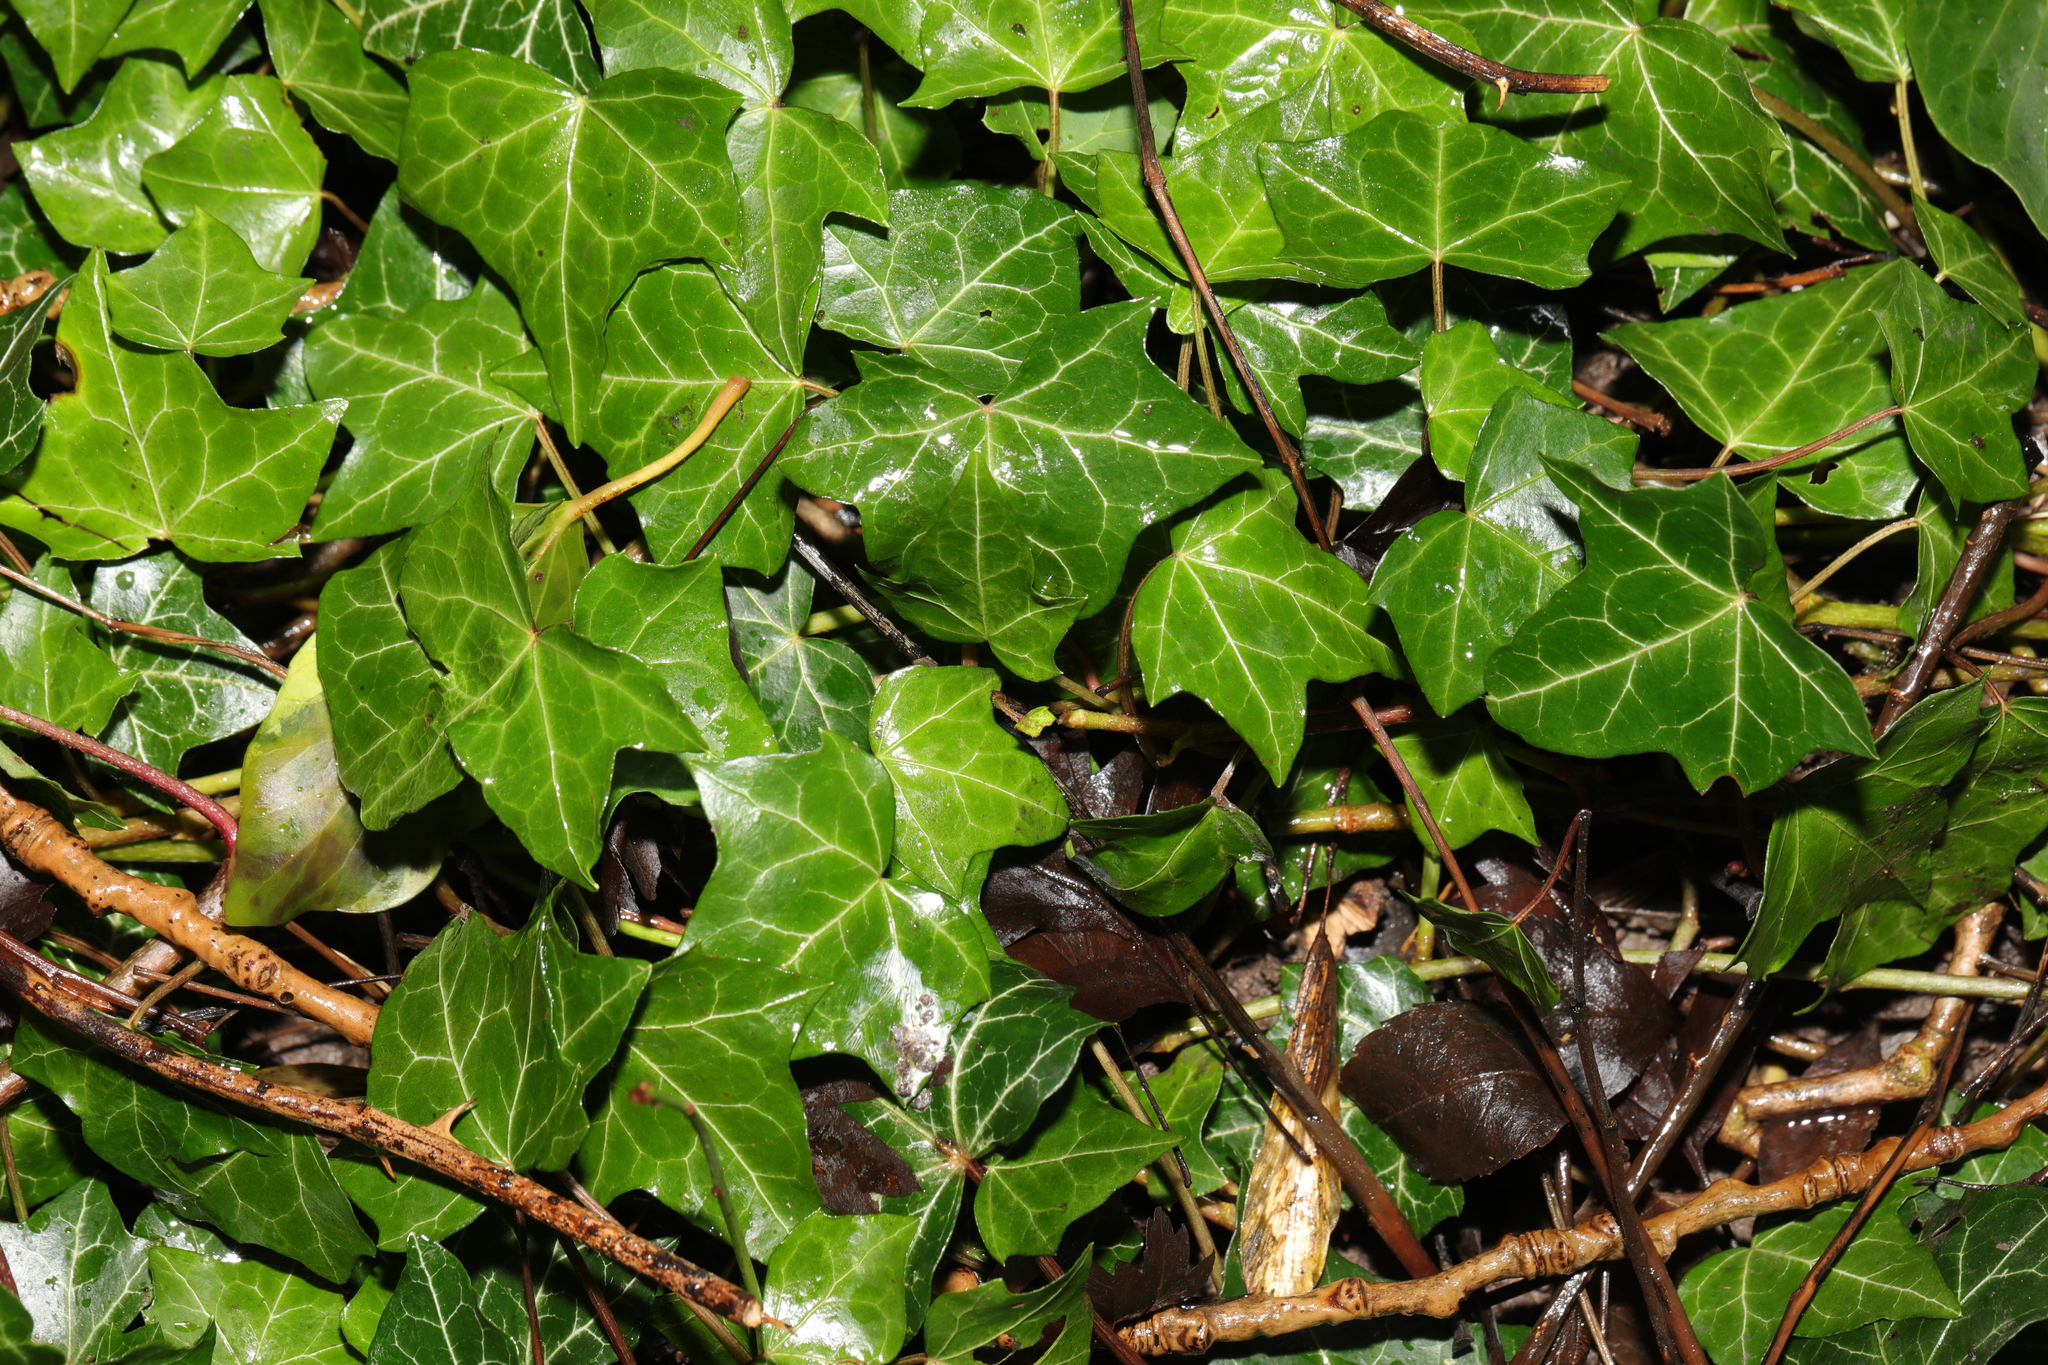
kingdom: Plantae
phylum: Tracheophyta
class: Magnoliopsida
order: Apiales
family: Araliaceae
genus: Hedera
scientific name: Hedera helix
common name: Ivy
